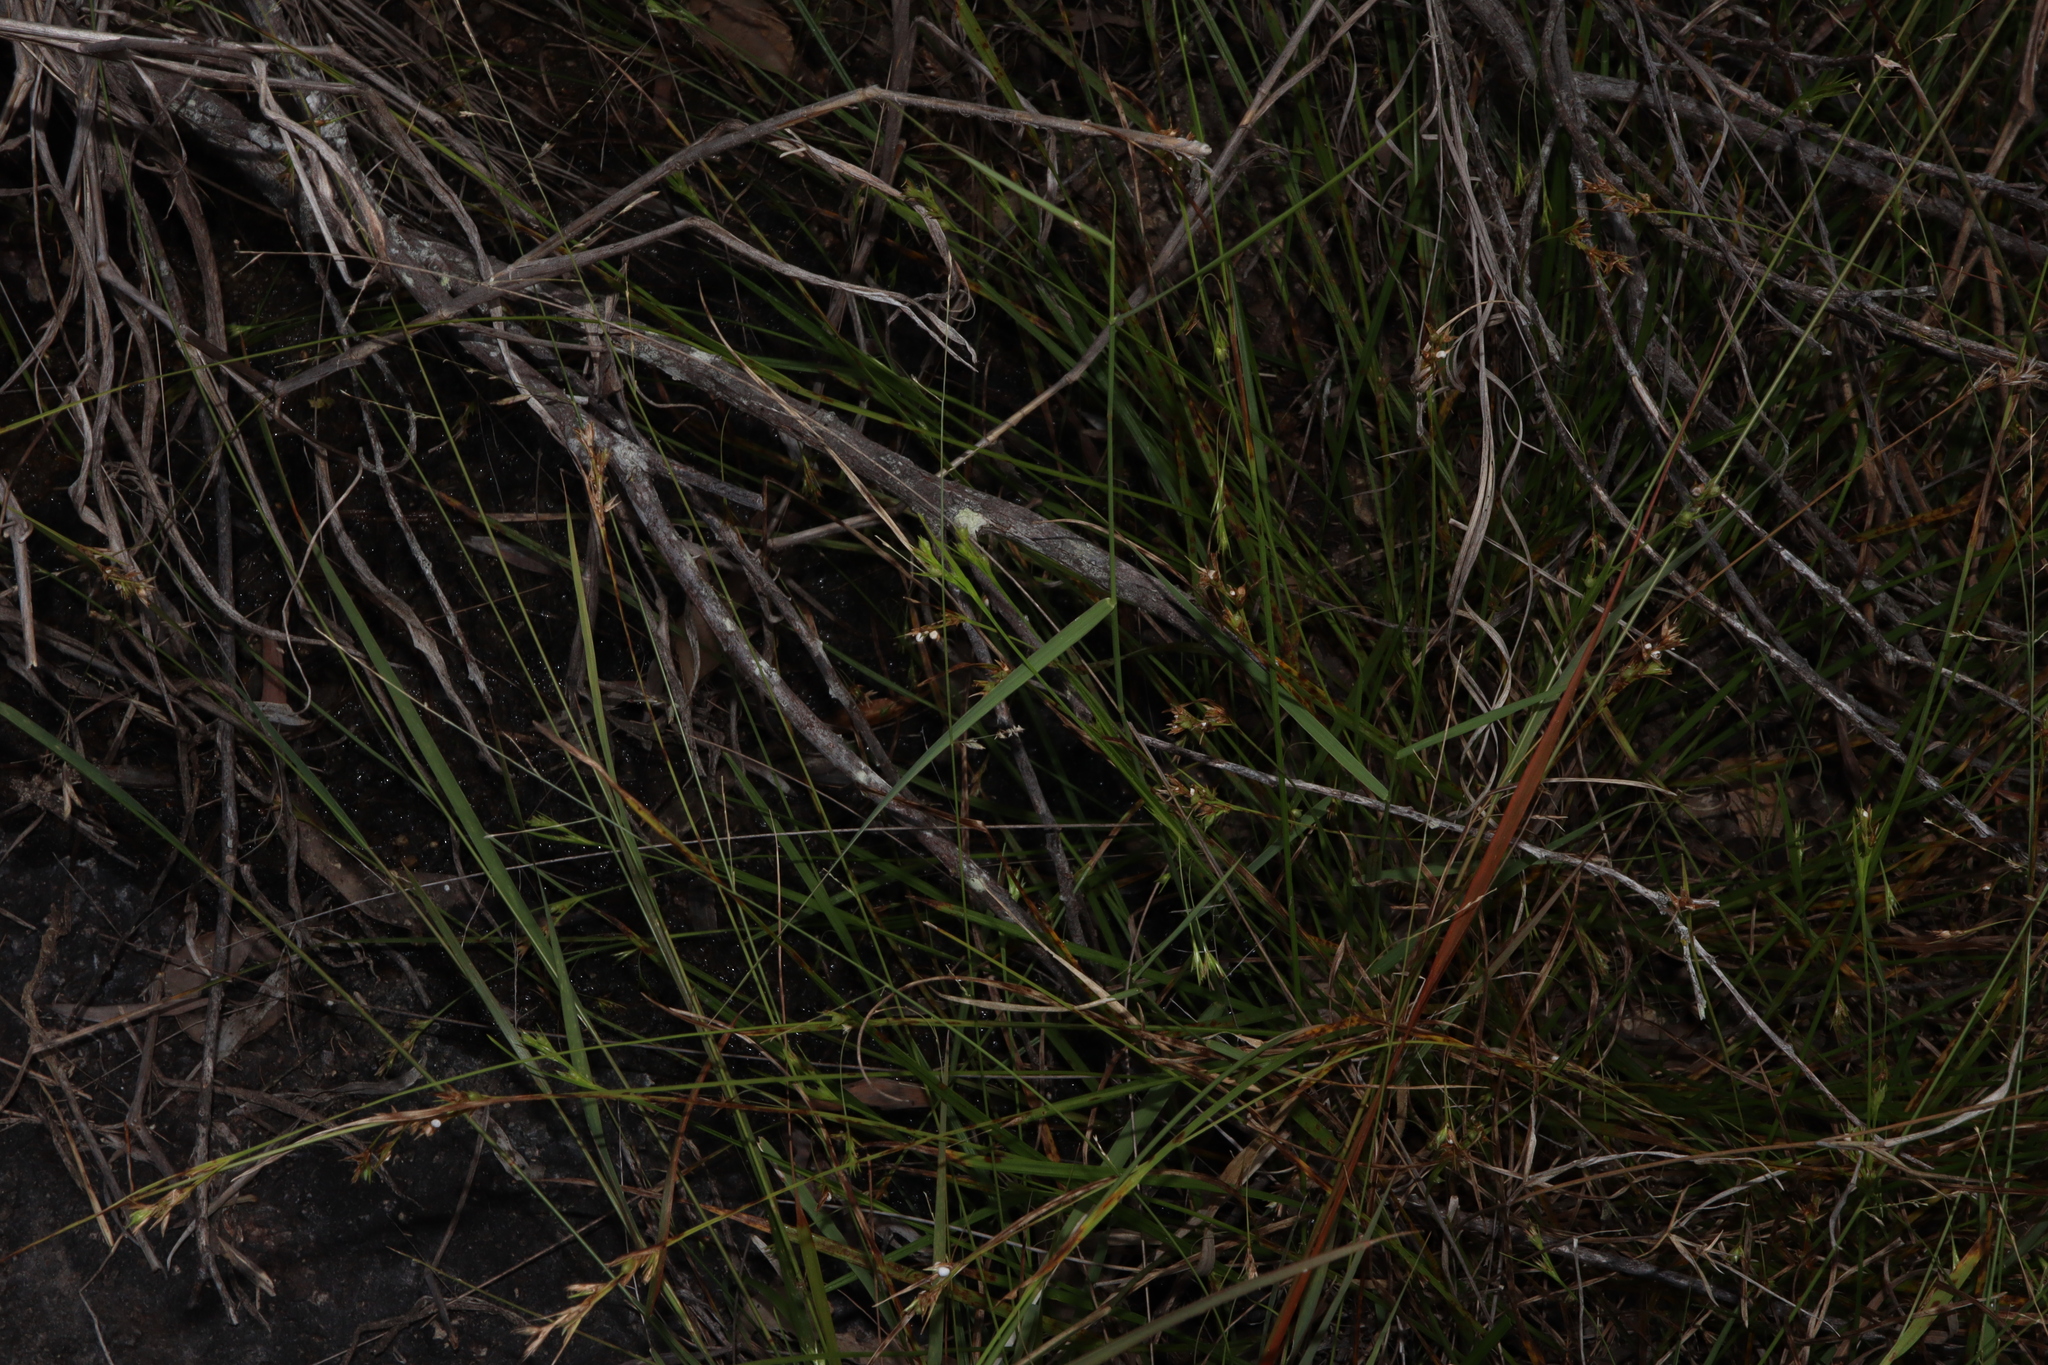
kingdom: Plantae
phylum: Tracheophyta
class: Liliopsida
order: Poales
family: Cyperaceae
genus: Scleria
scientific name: Scleria tricuspidata
